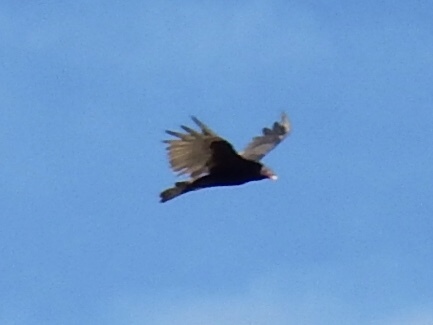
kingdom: Animalia
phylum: Chordata
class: Aves
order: Accipitriformes
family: Cathartidae
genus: Cathartes
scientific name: Cathartes aura
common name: Turkey vulture
